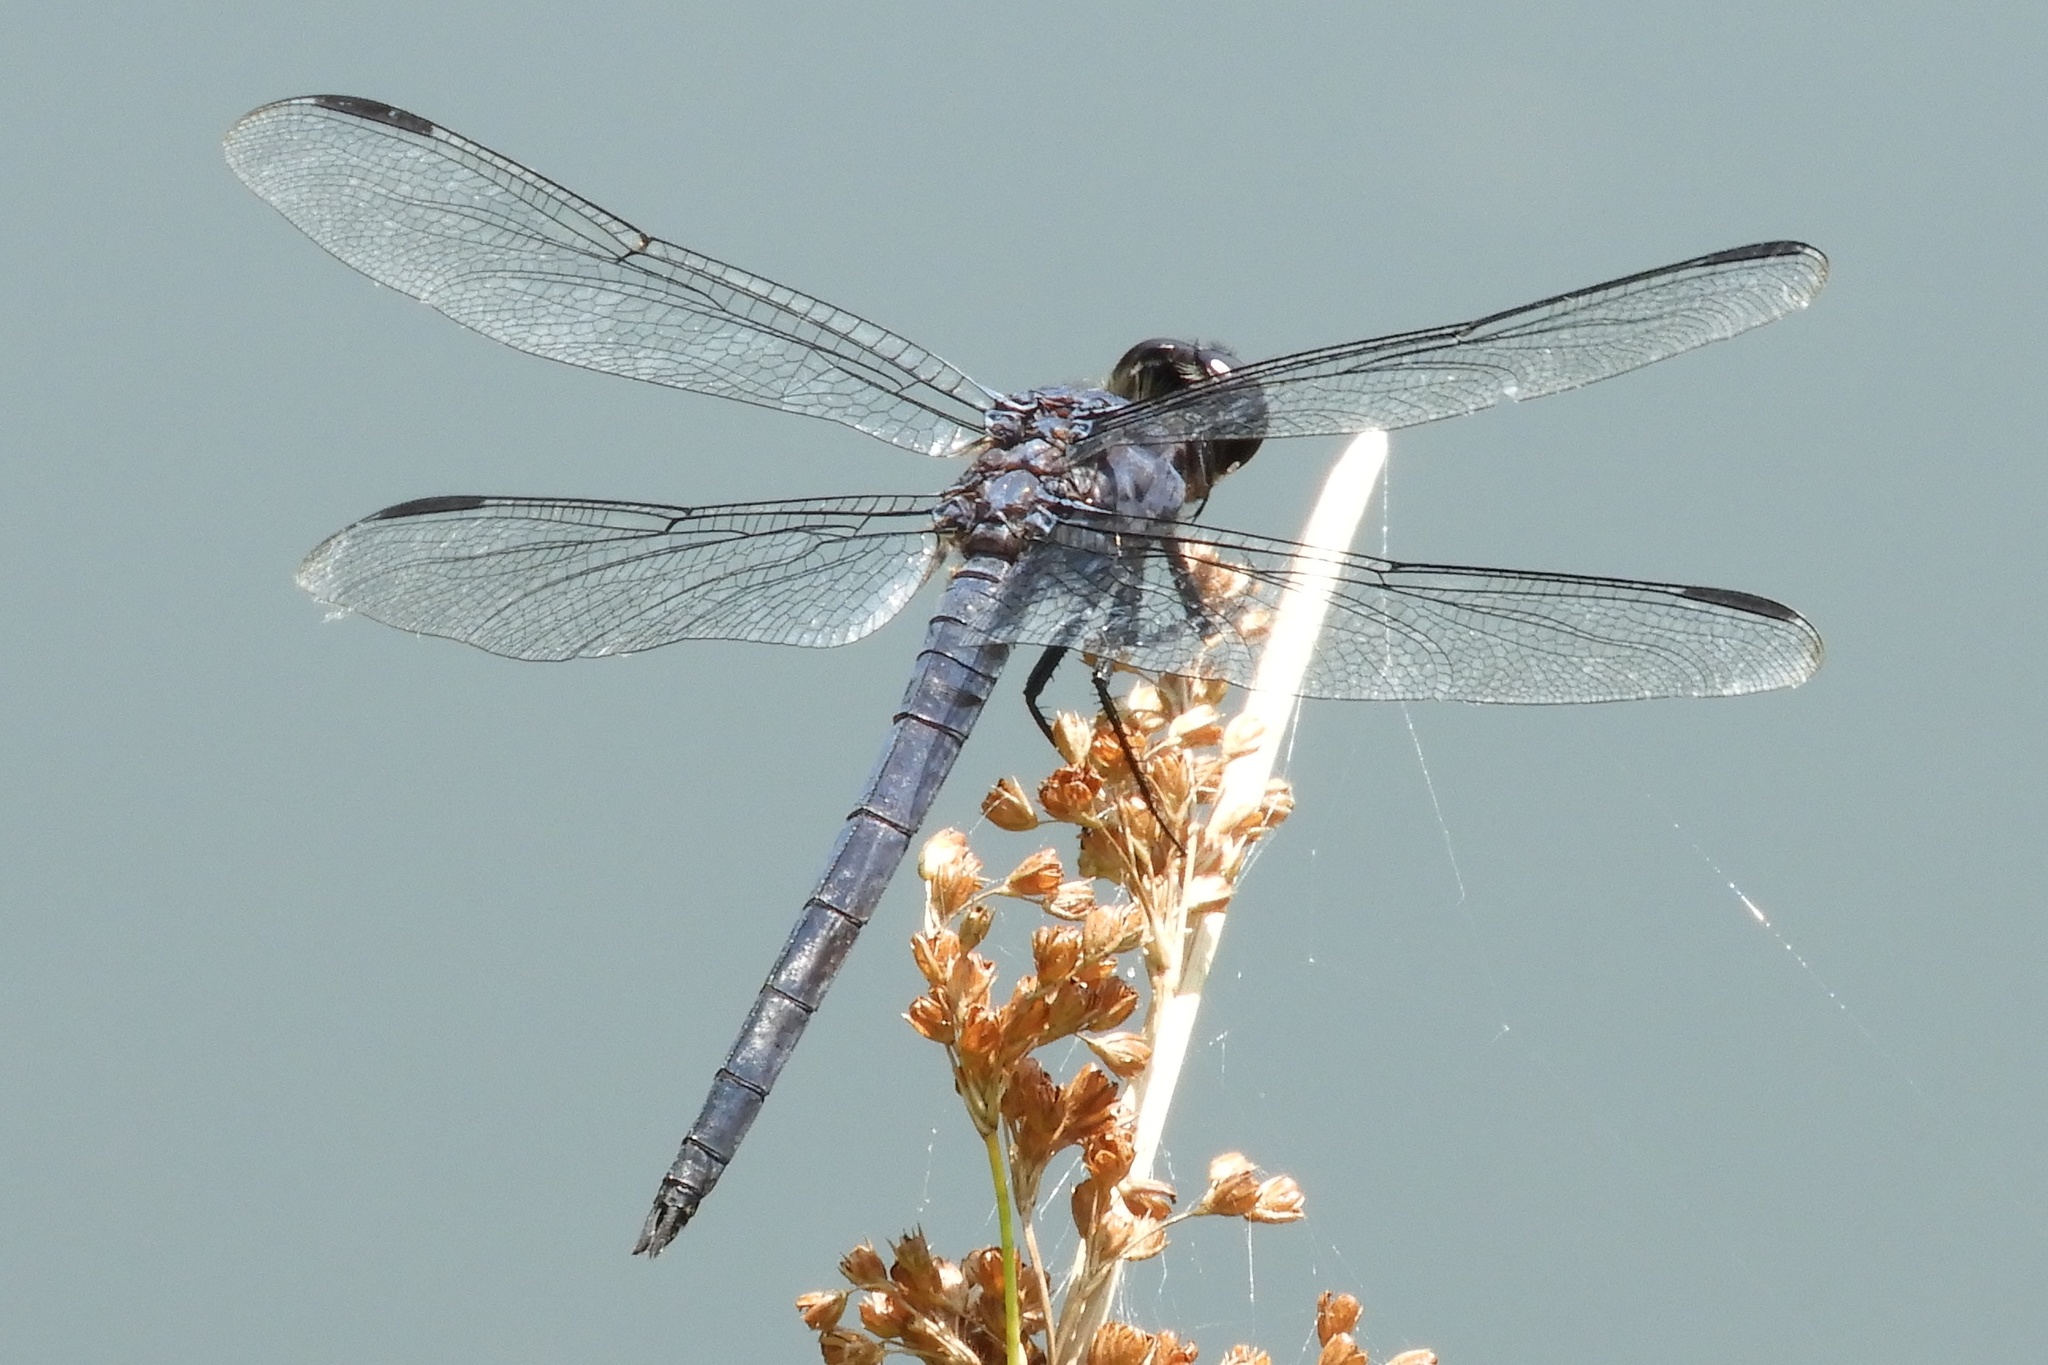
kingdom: Animalia
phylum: Arthropoda
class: Insecta
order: Odonata
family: Libellulidae
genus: Libellula
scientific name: Libellula incesta
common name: Slaty skimmer
